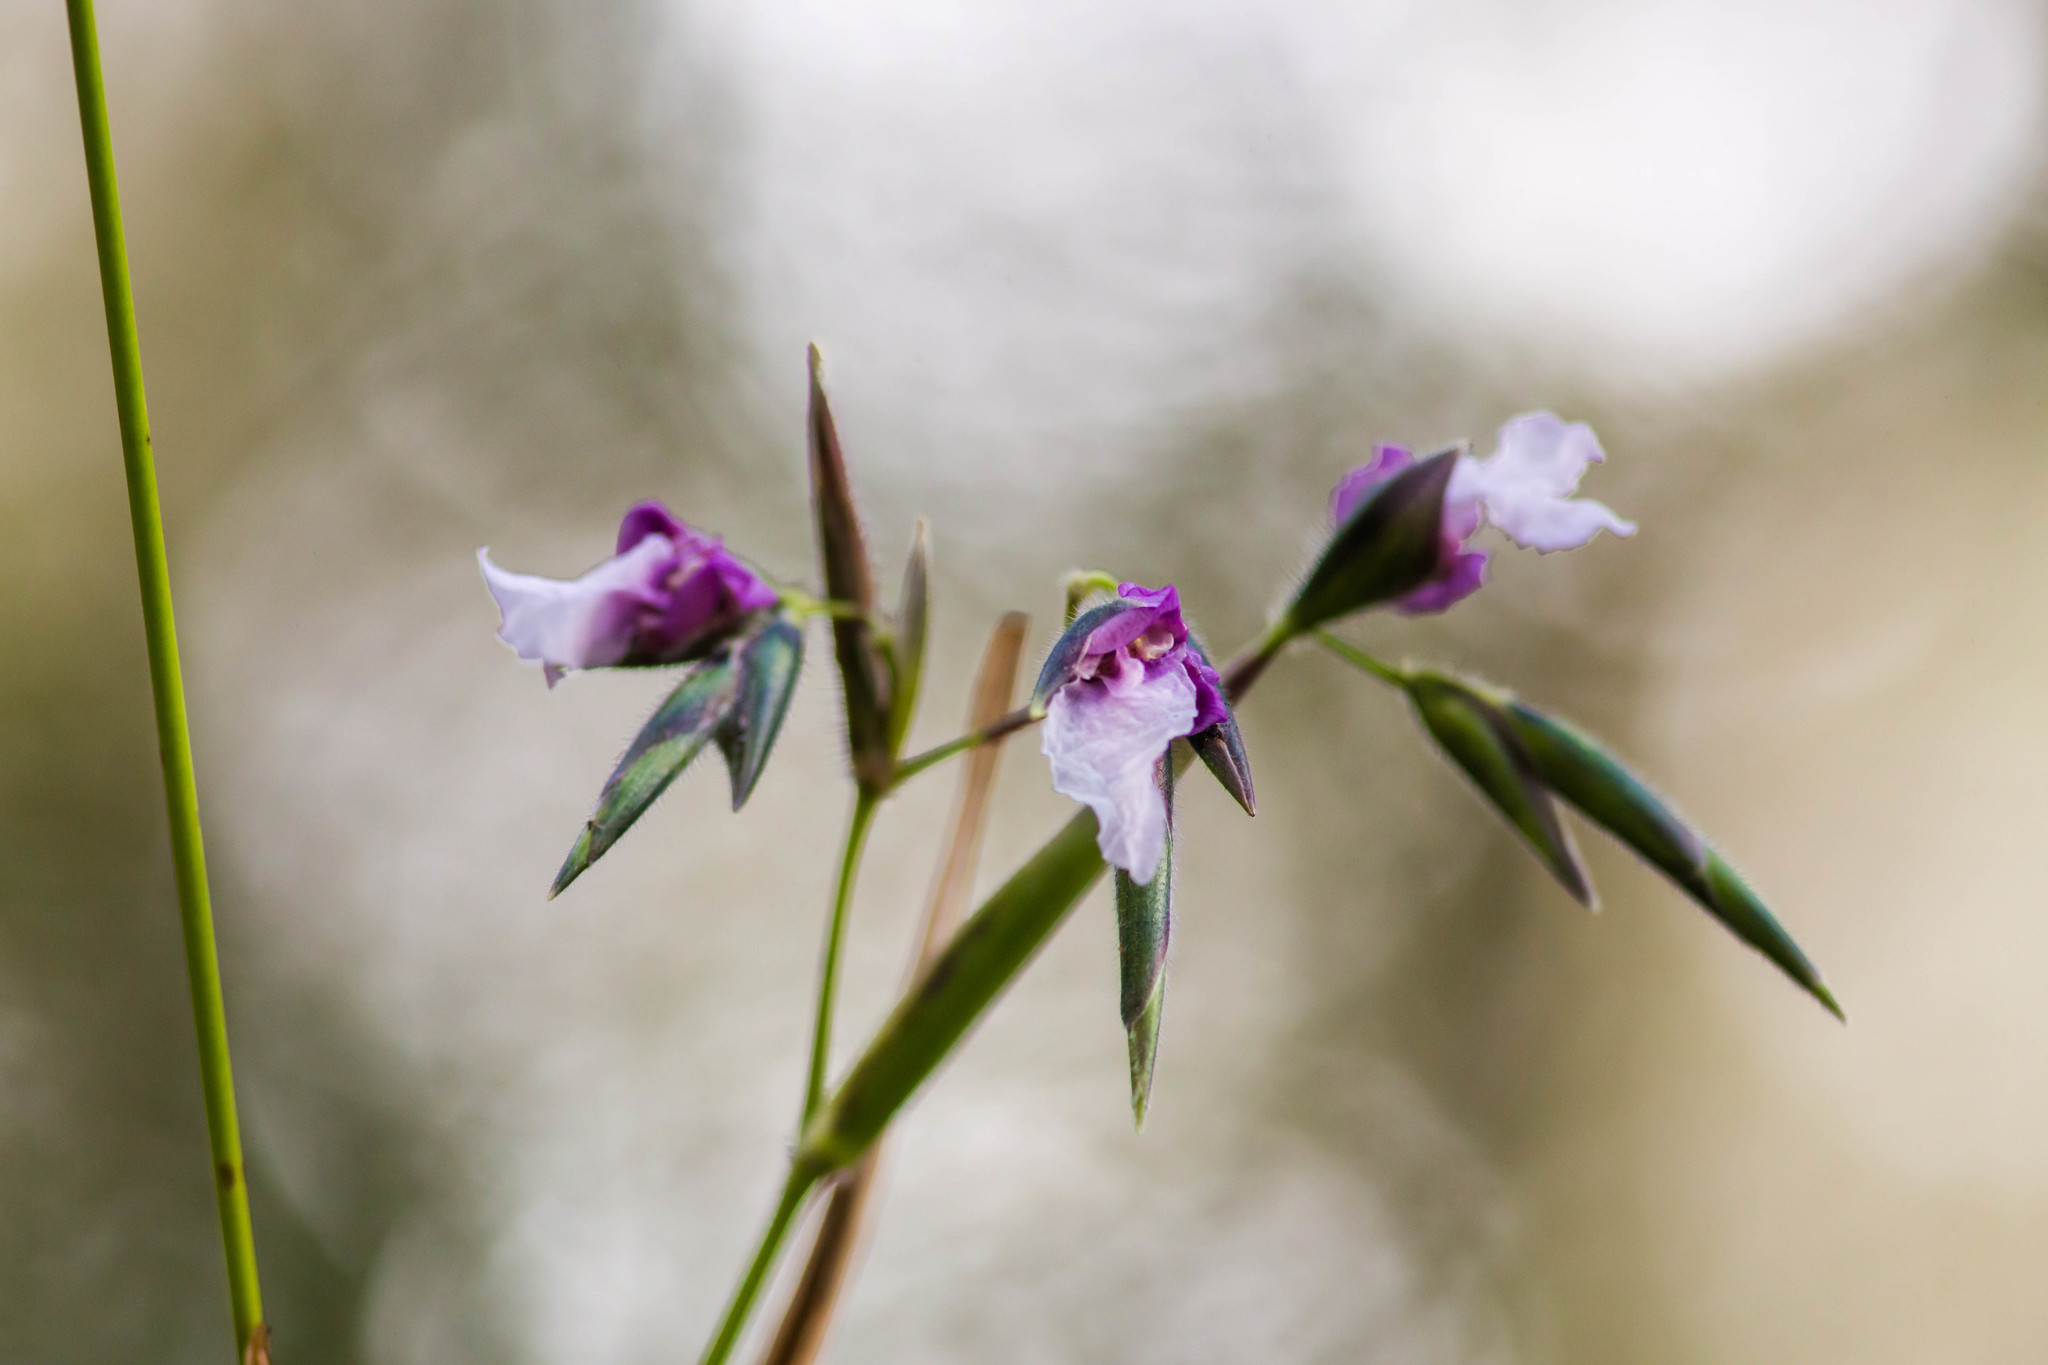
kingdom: Plantae
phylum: Tracheophyta
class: Liliopsida
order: Zingiberales
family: Marantaceae
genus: Thalia
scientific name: Thalia geniculata
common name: Arrowroot
